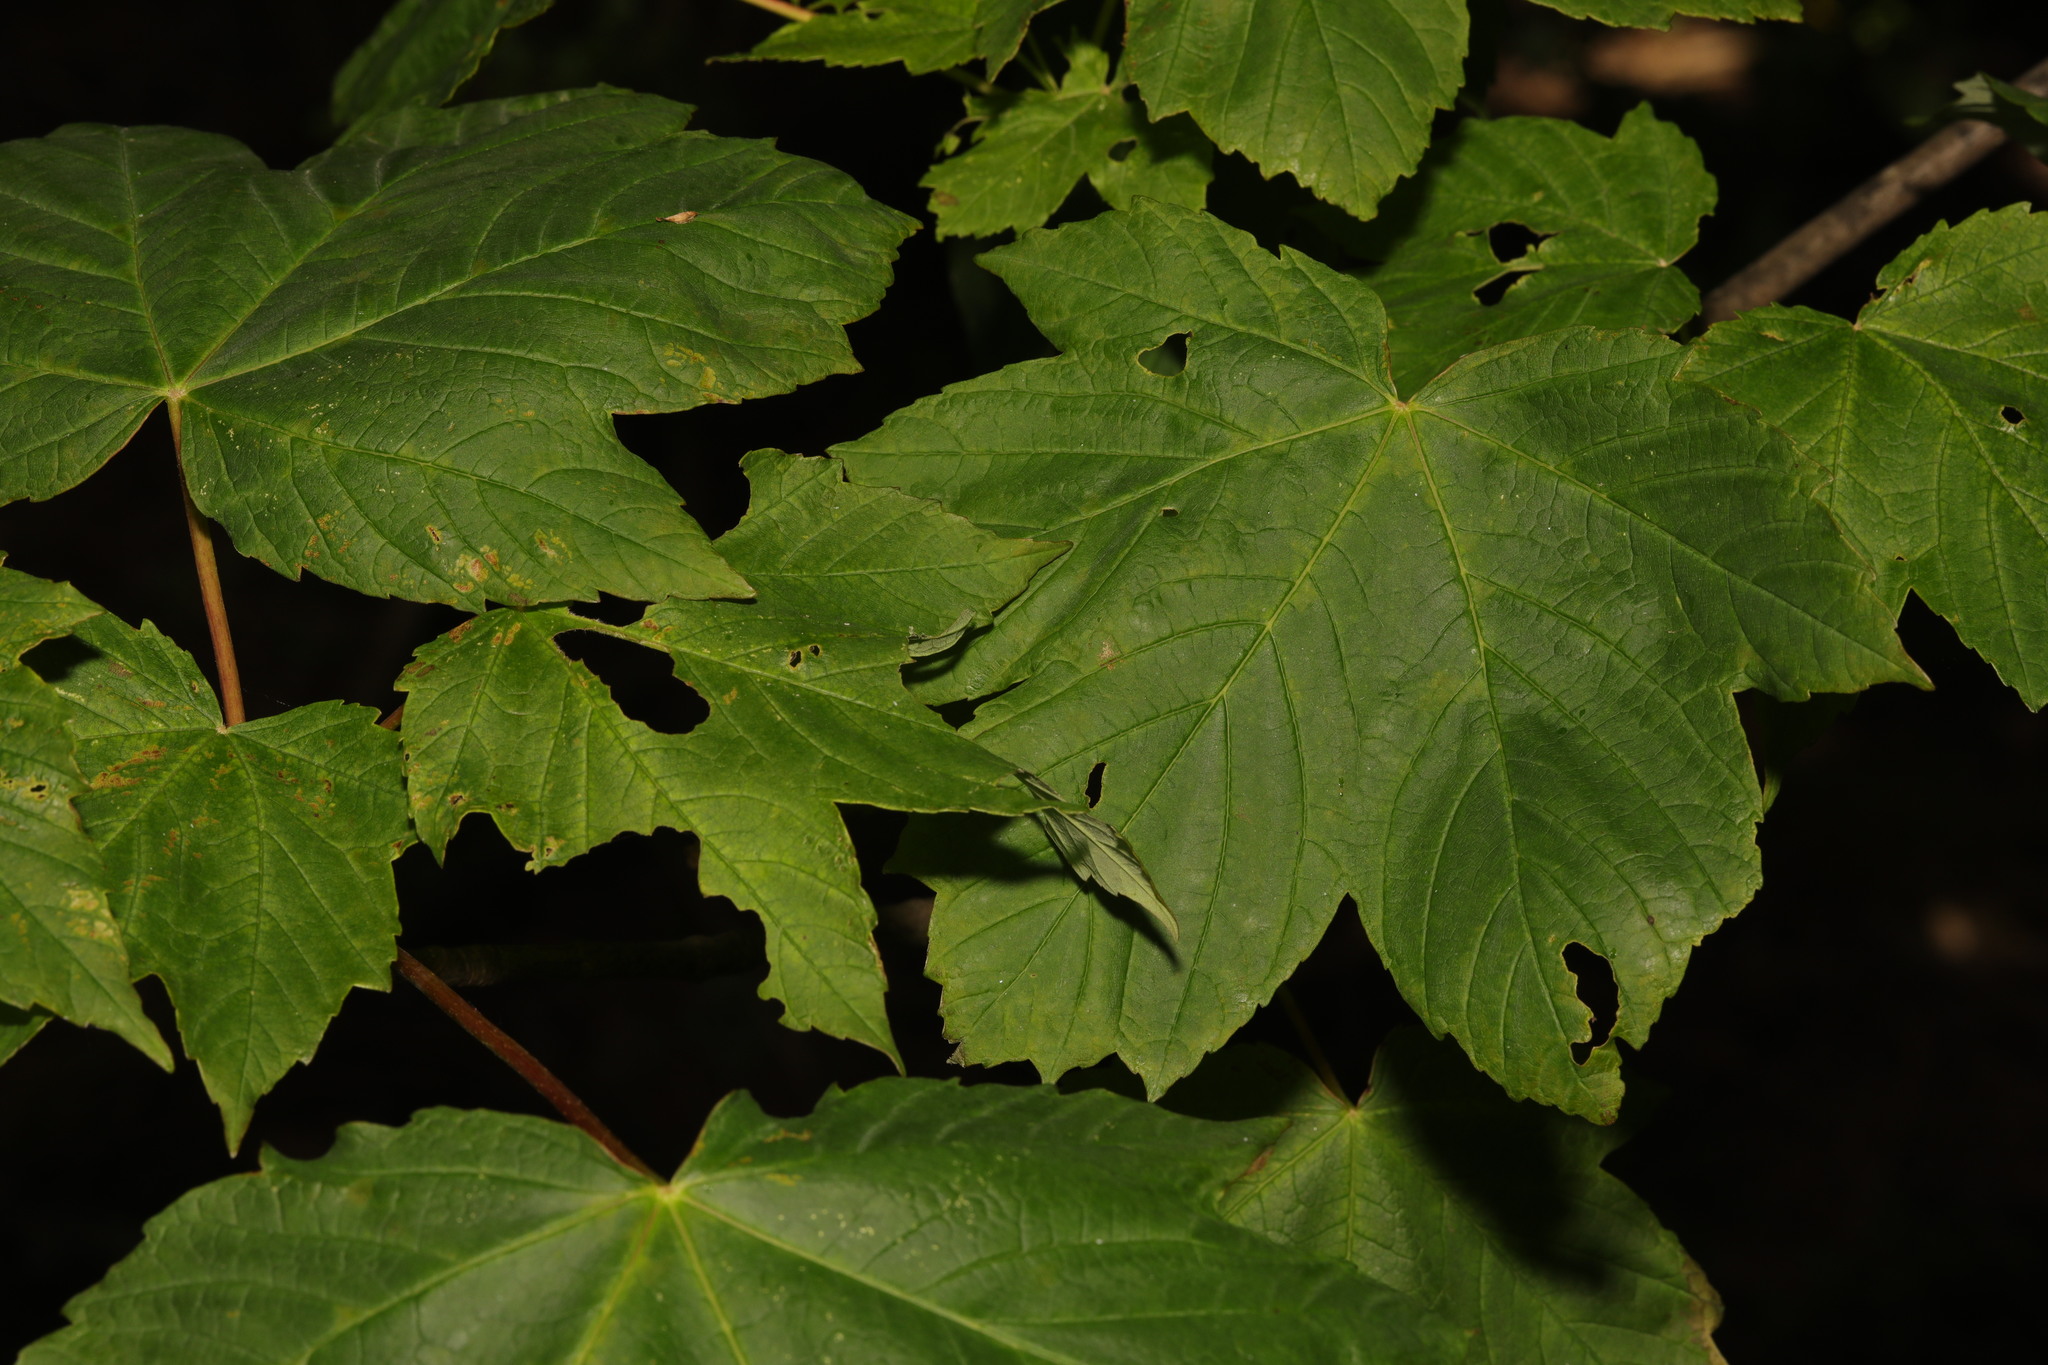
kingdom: Plantae
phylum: Tracheophyta
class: Magnoliopsida
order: Sapindales
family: Sapindaceae
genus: Acer
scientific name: Acer pseudoplatanus
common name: Sycamore
